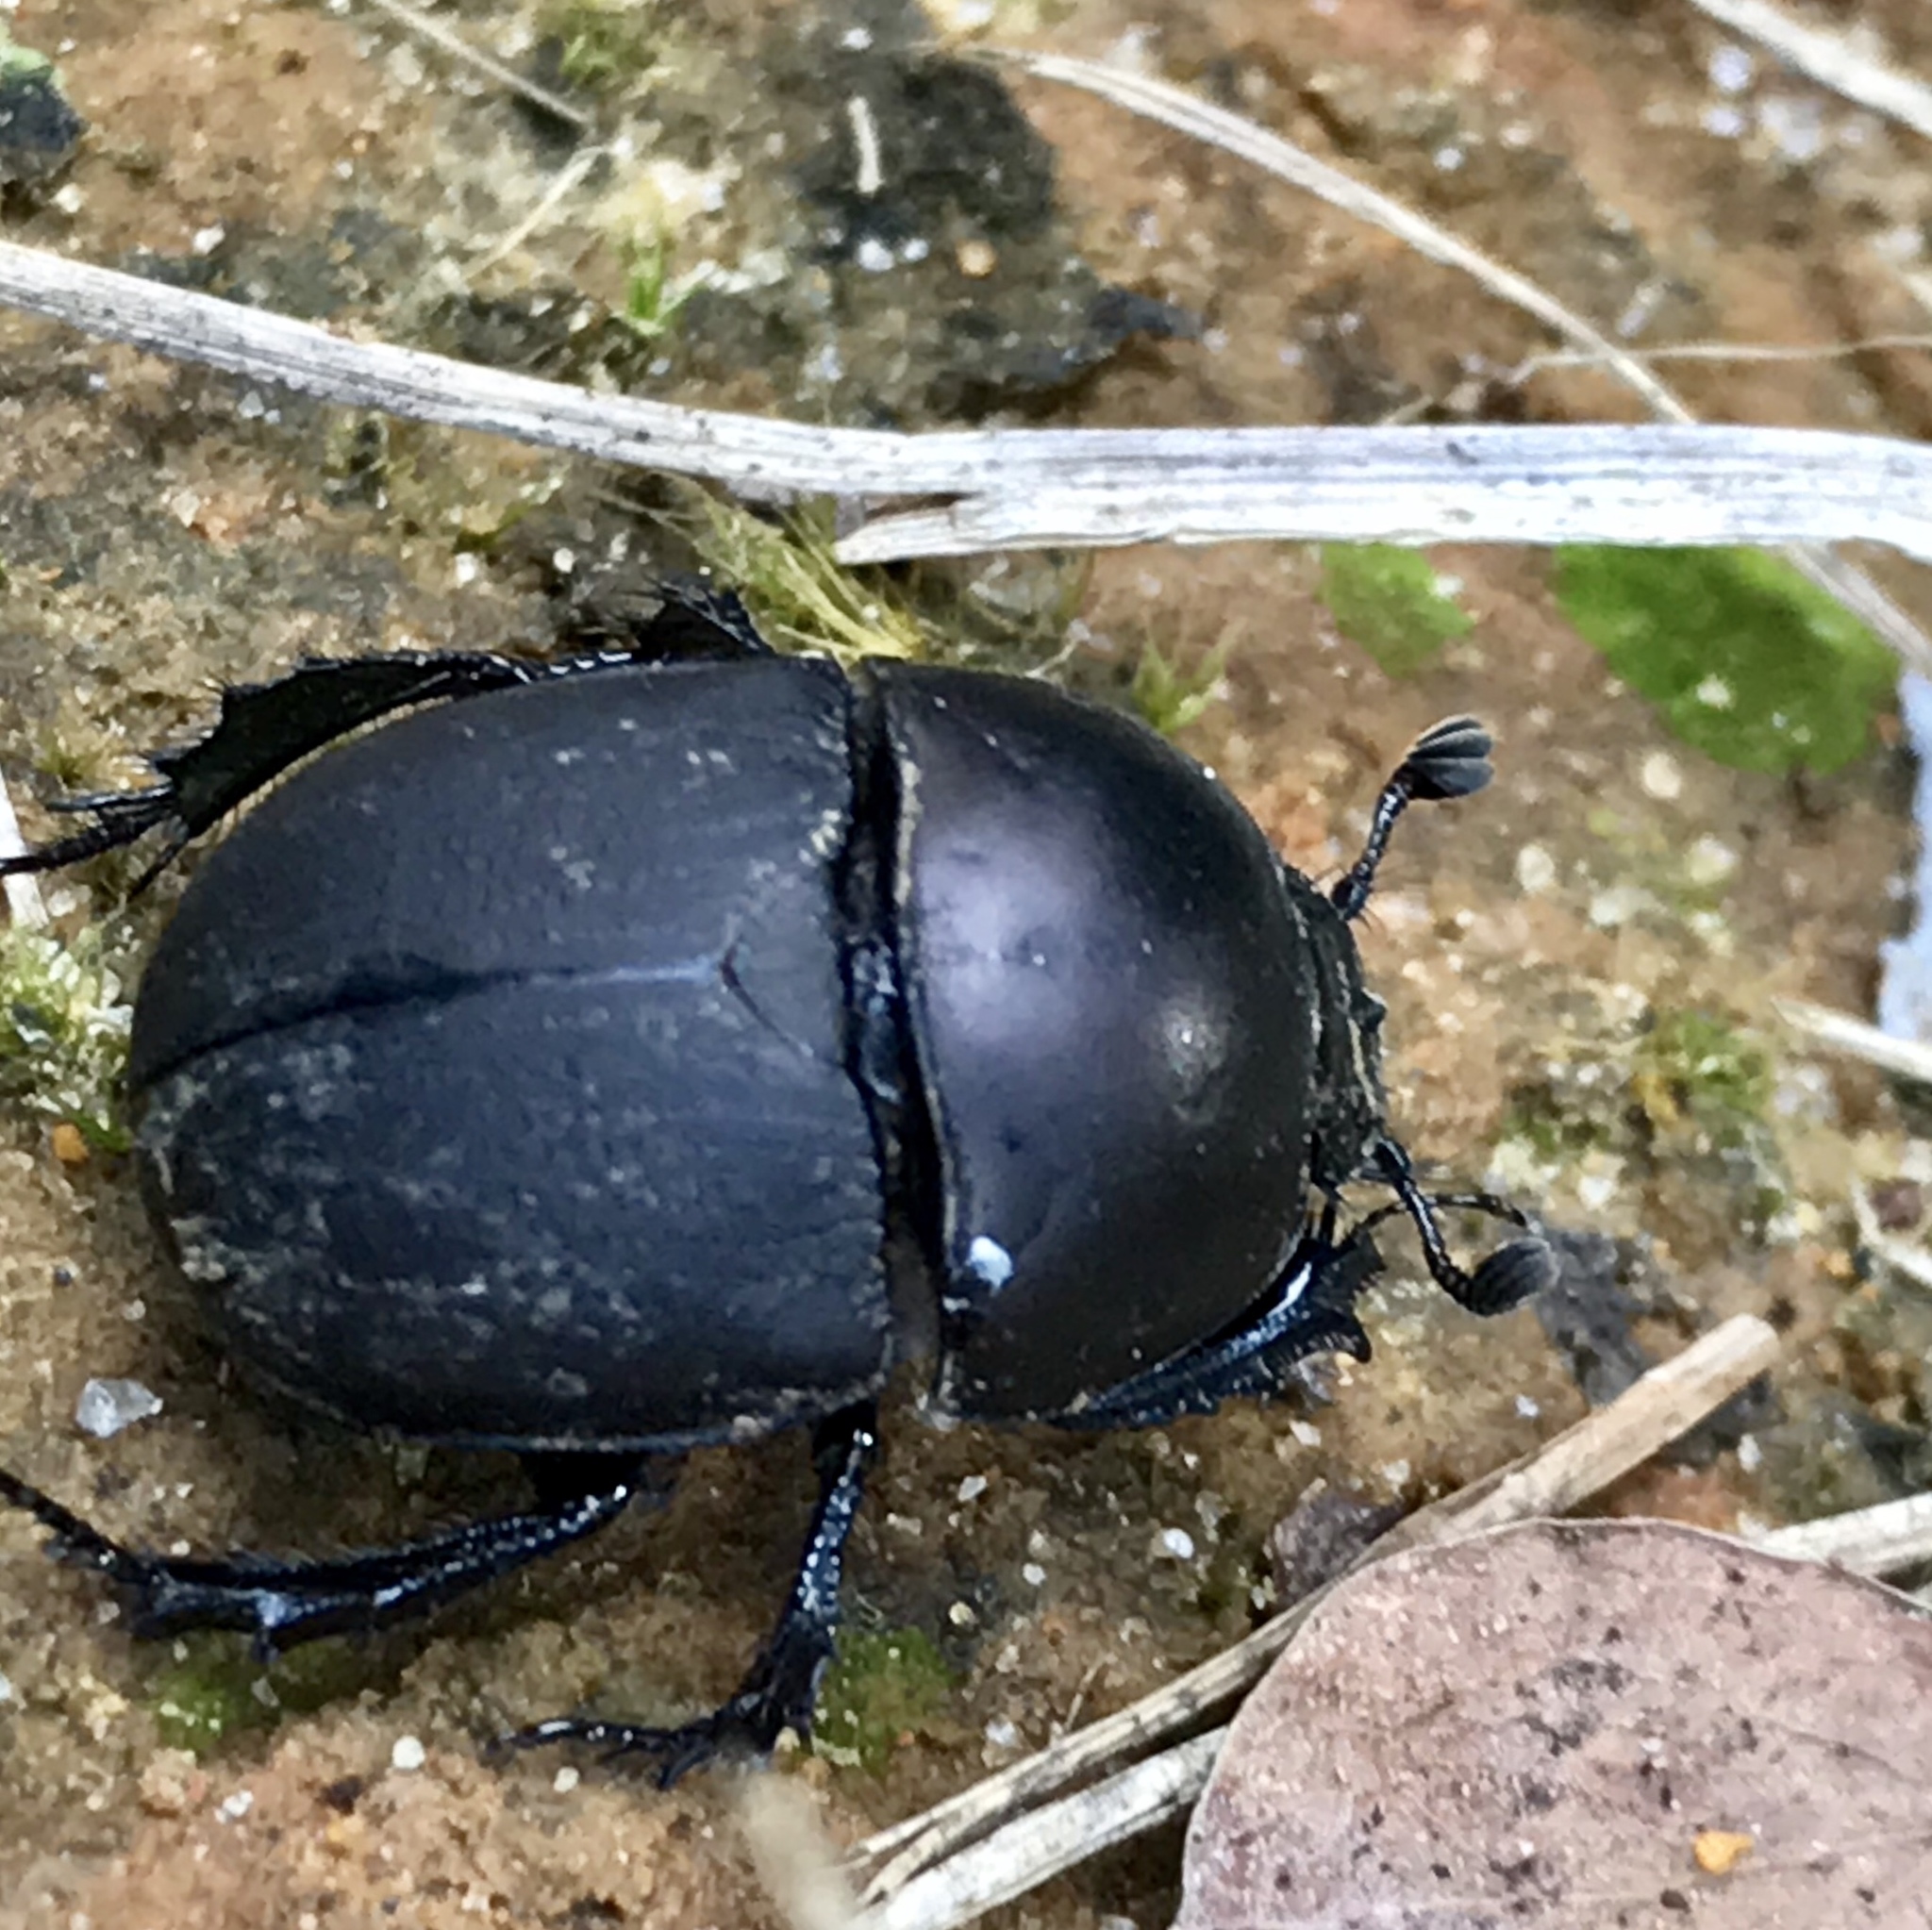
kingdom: Animalia
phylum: Arthropoda
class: Insecta
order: Coleoptera
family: Geotrupidae
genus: Geohowdenius
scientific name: Geohowdenius opacus
